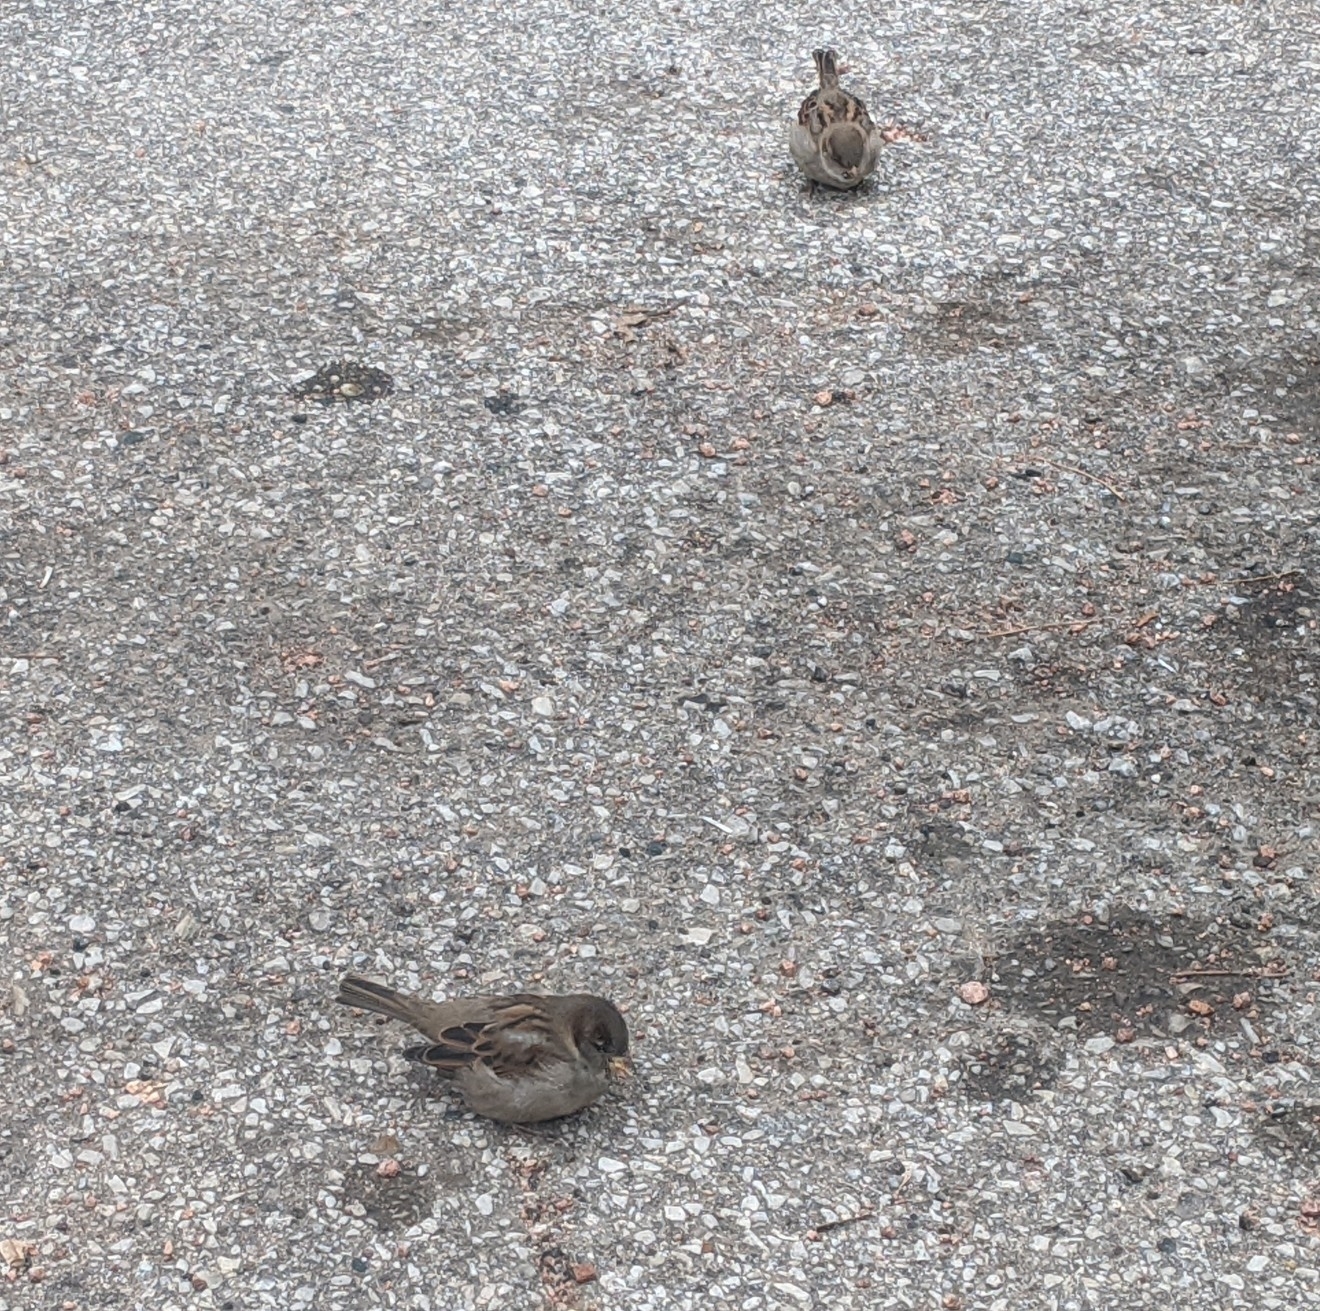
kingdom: Animalia
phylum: Chordata
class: Aves
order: Passeriformes
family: Passeridae
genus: Passer
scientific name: Passer domesticus
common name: House sparrow
